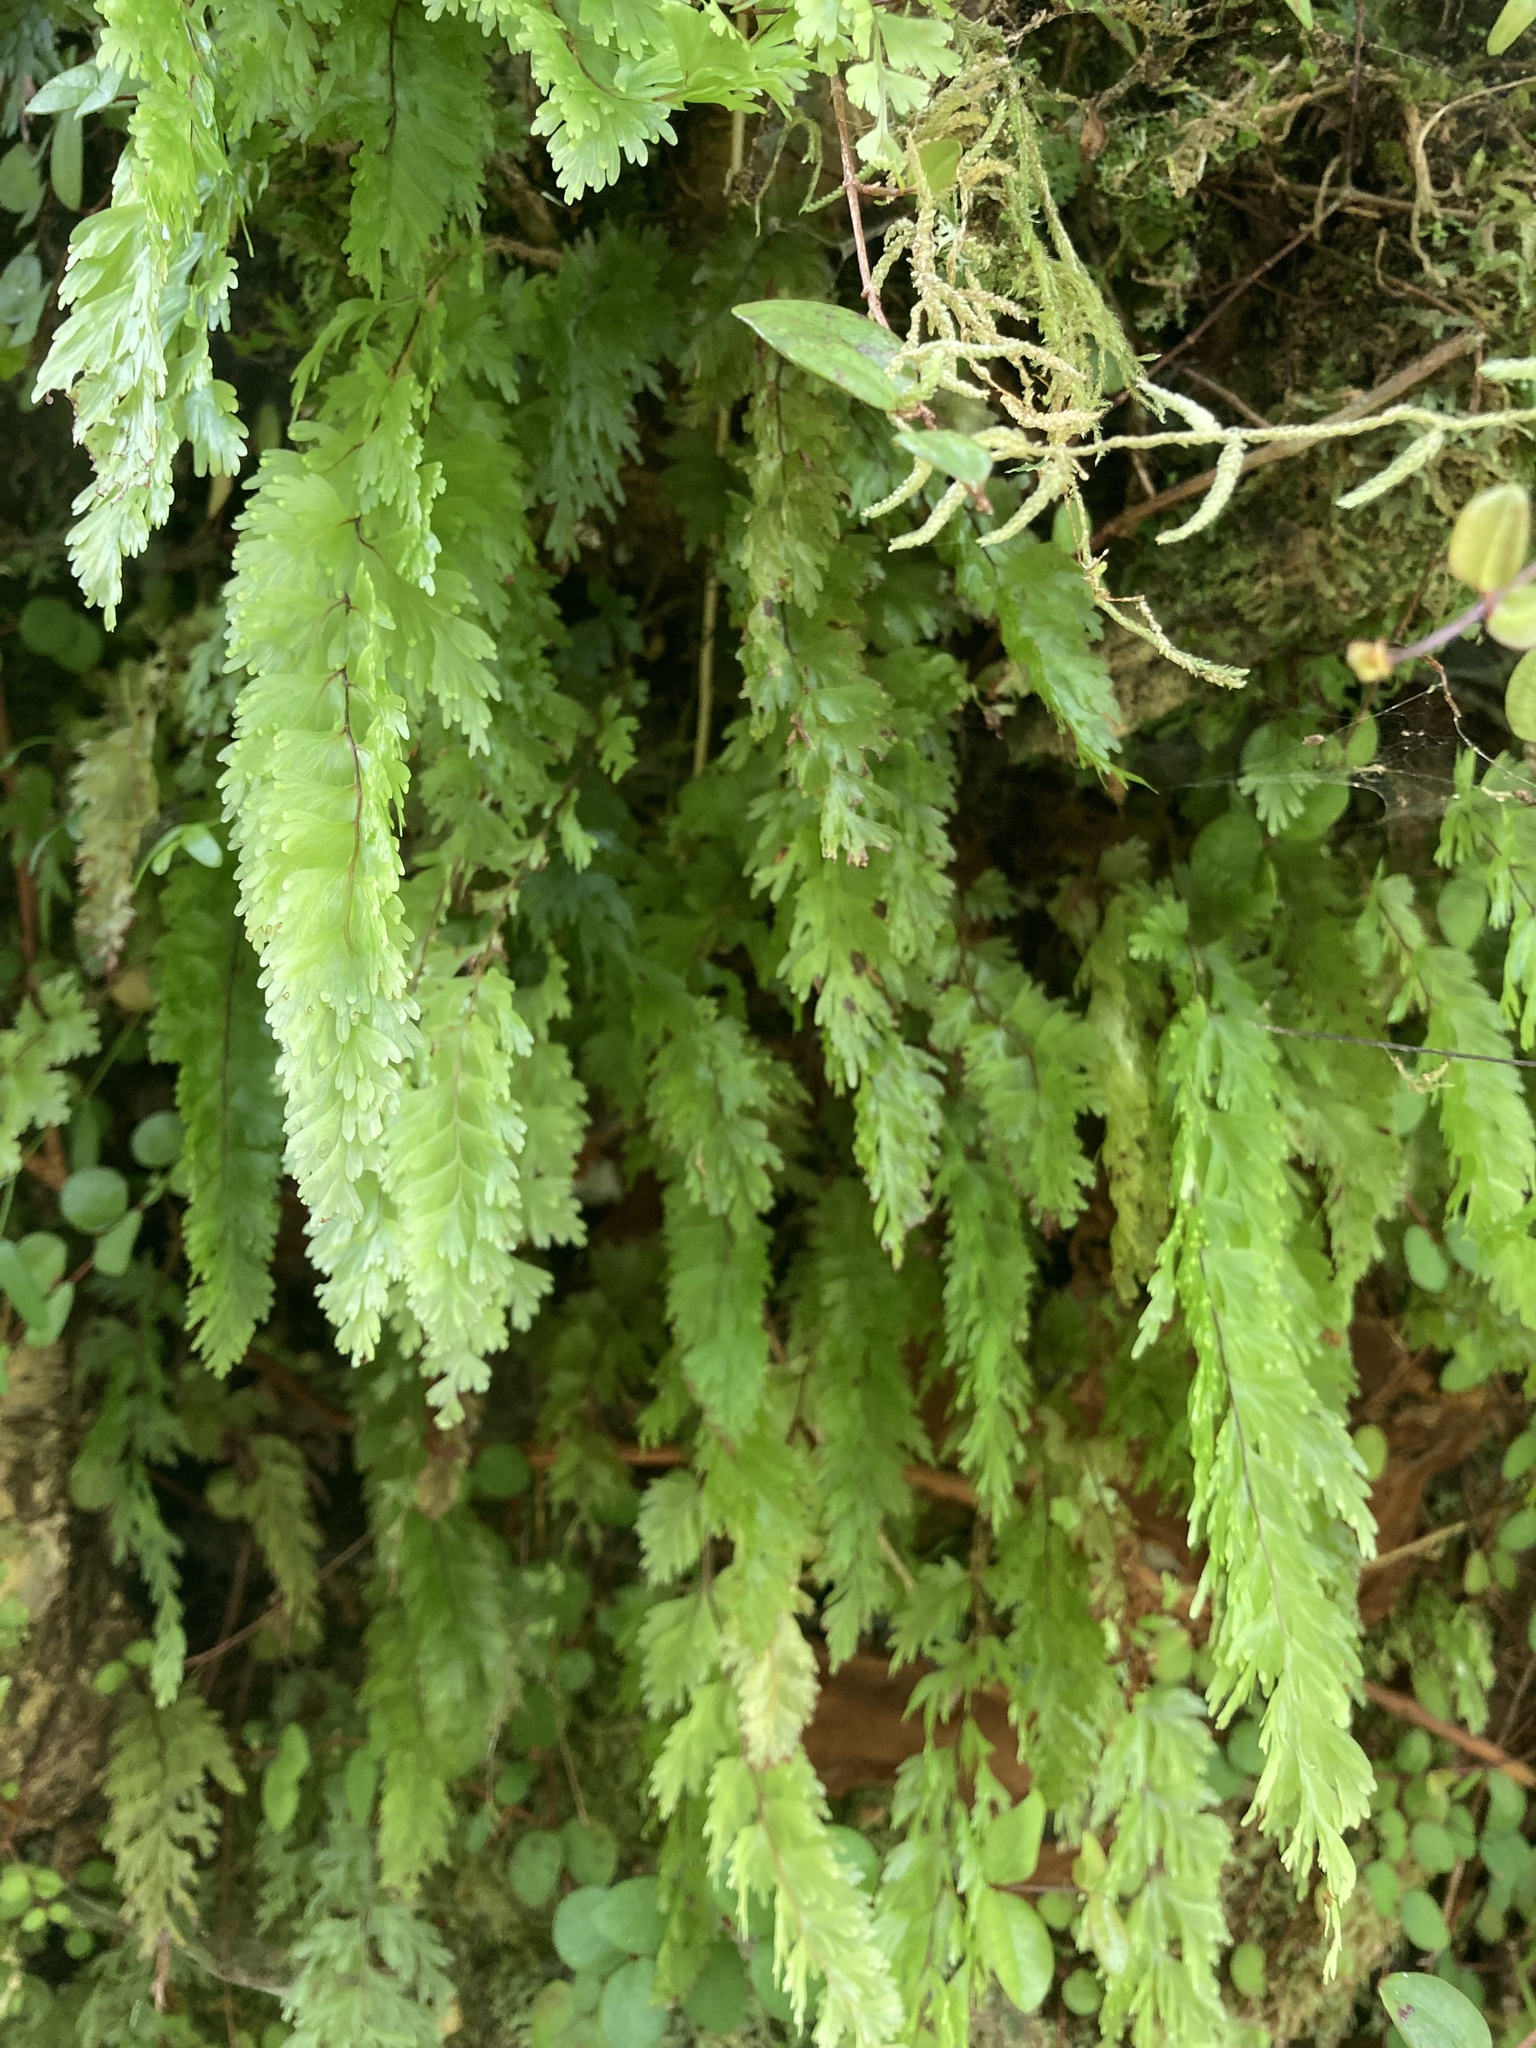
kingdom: Plantae
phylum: Tracheophyta
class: Polypodiopsida
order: Hymenophyllales
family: Hymenophyllaceae
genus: Hymenophyllum
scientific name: Hymenophyllum flabellatum
